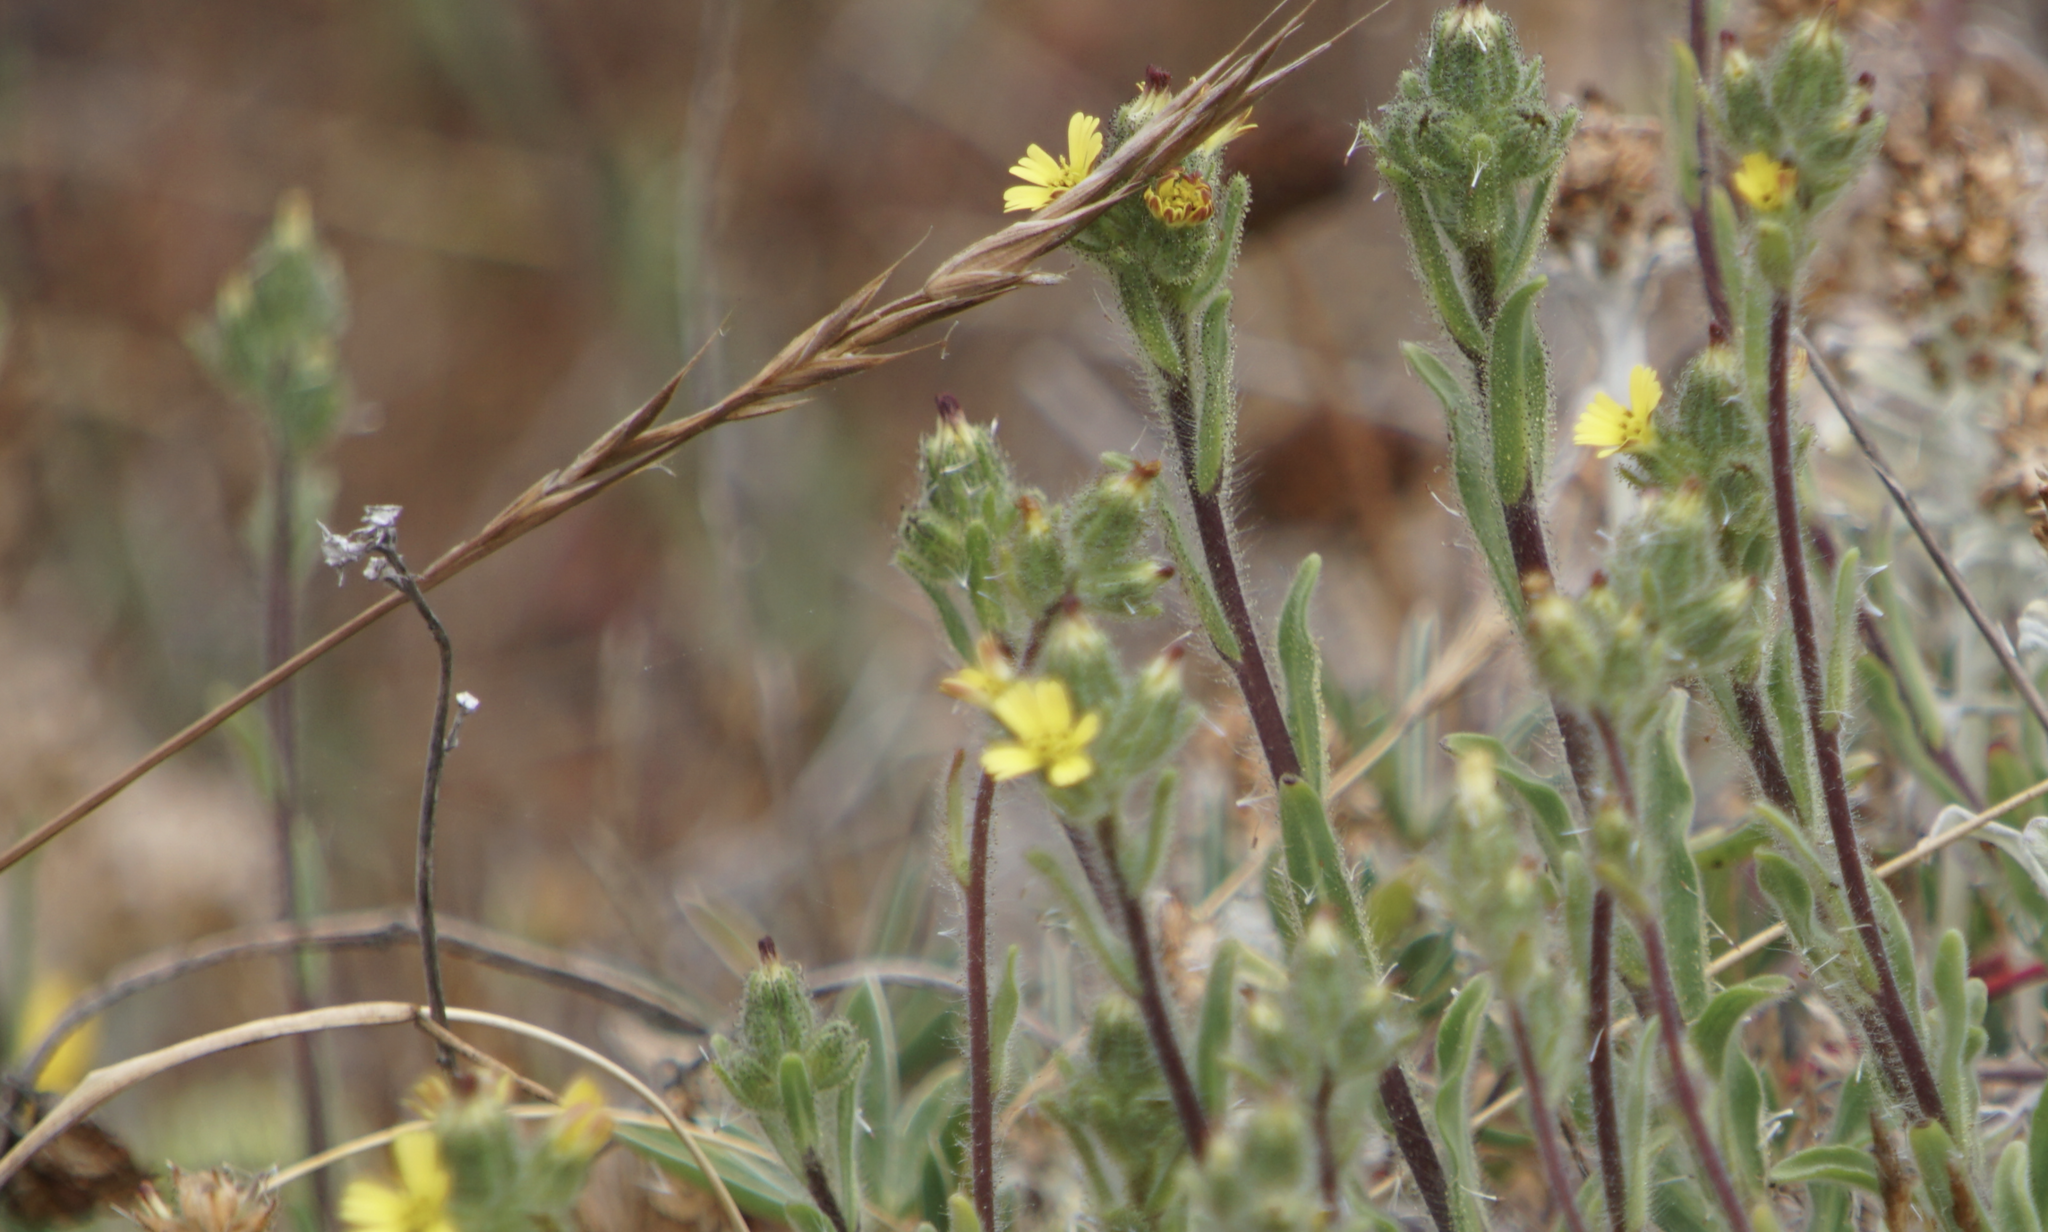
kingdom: Plantae
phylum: Tracheophyta
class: Magnoliopsida
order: Asterales
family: Asteraceae
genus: Madia
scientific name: Madia sativa
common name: Coast tarweed
